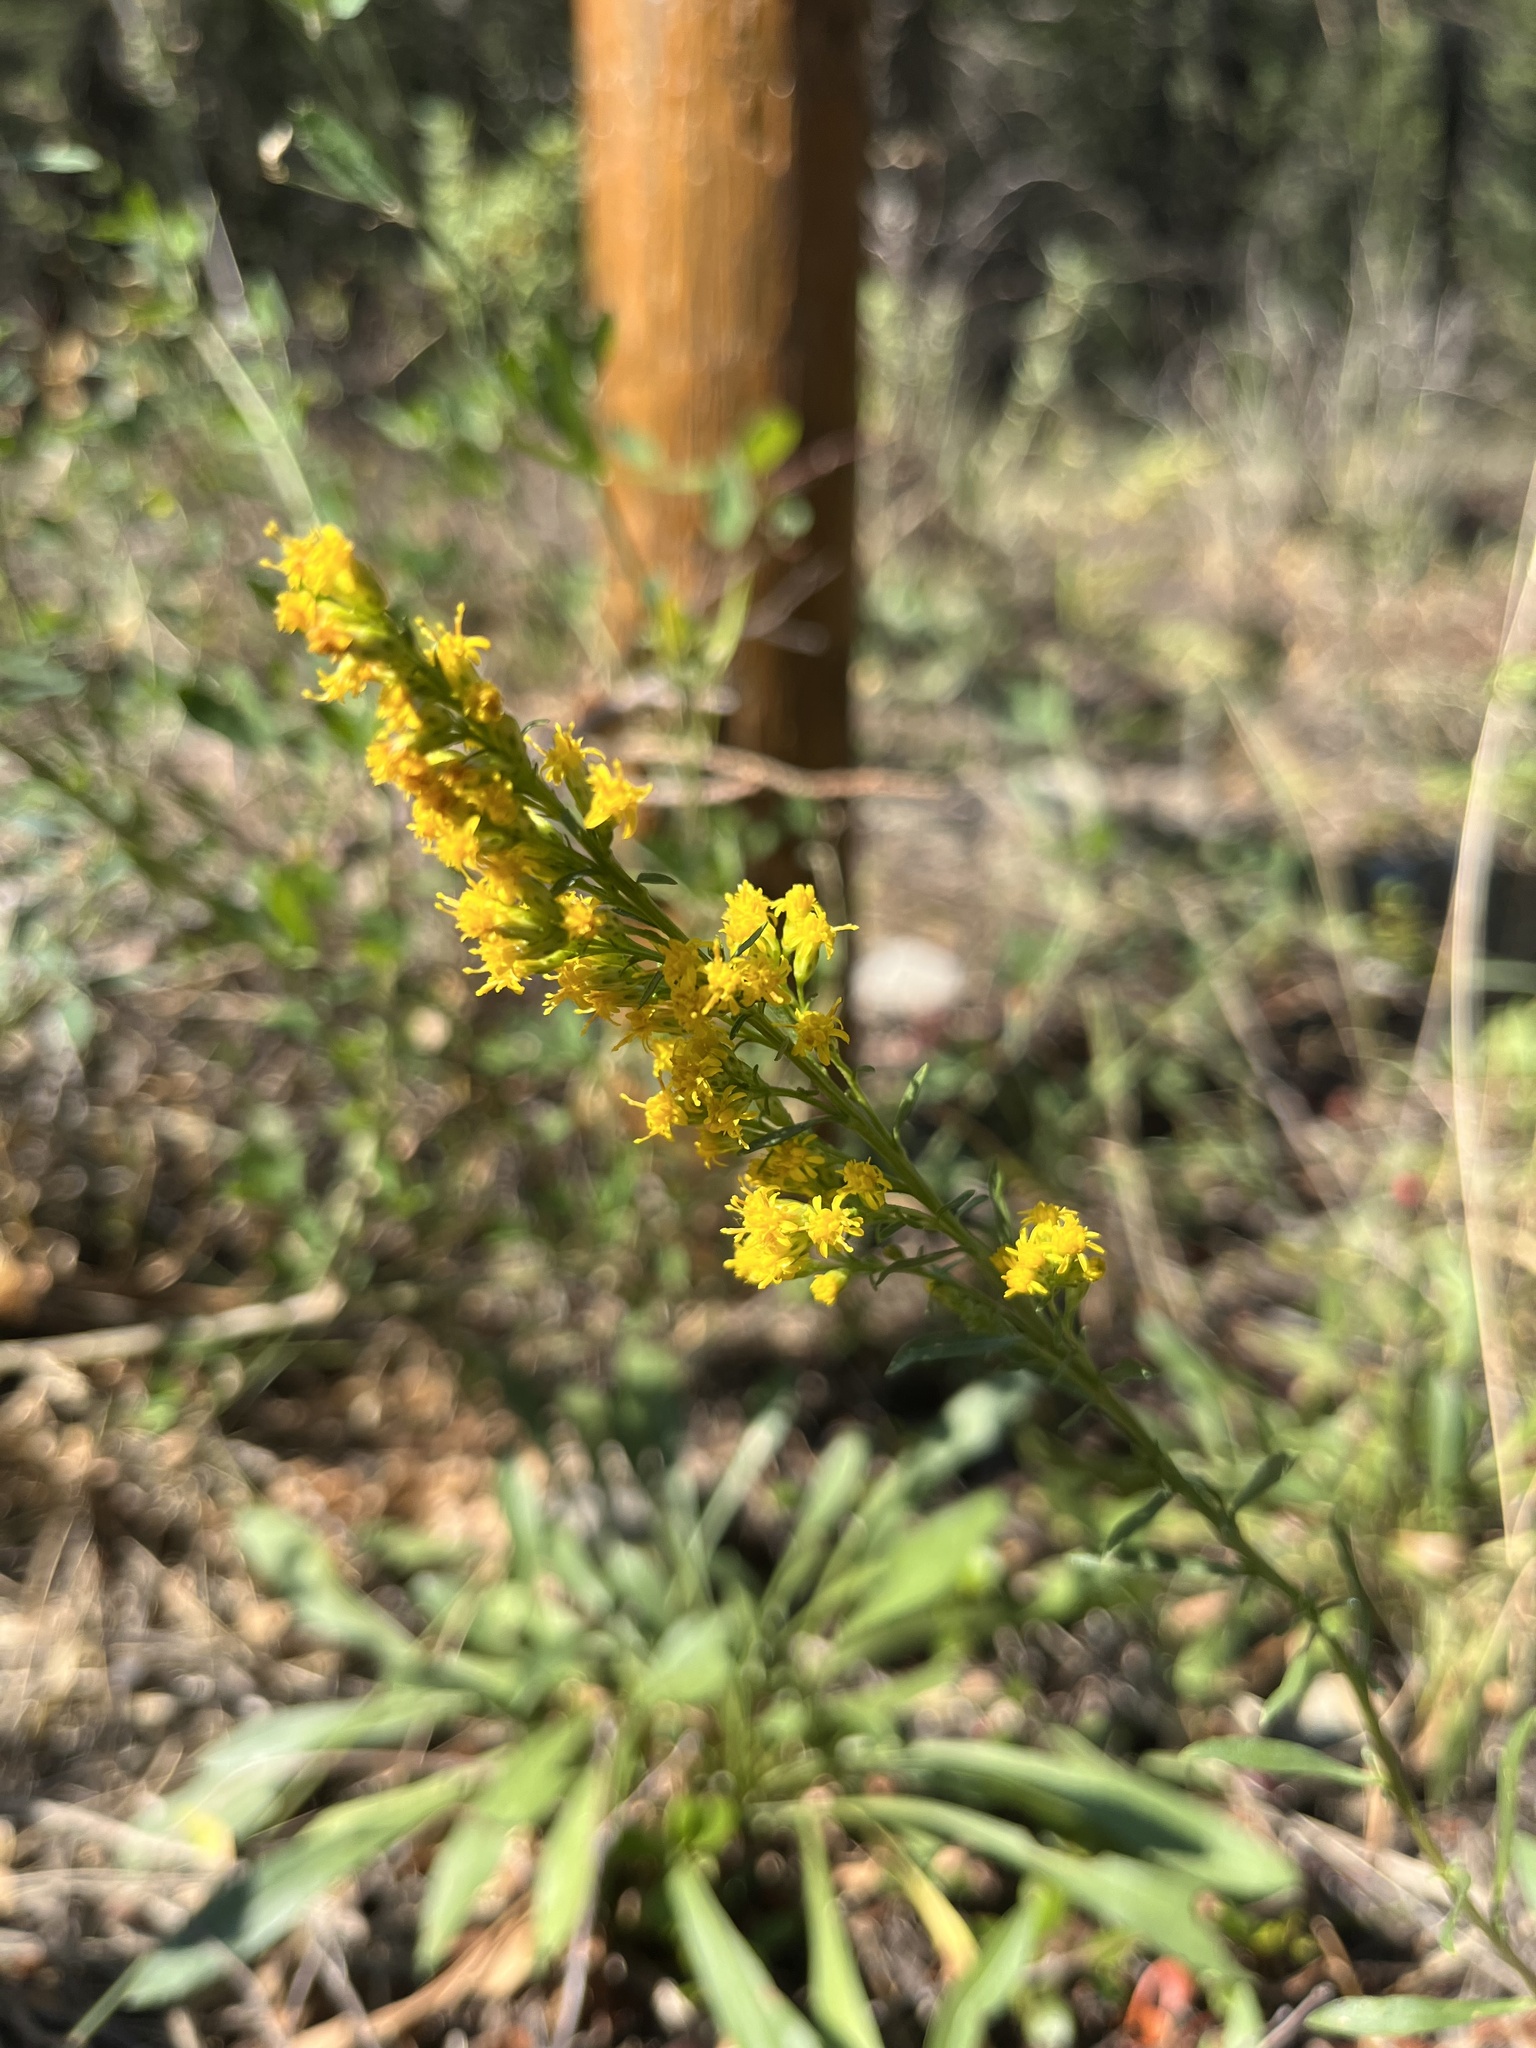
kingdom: Plantae
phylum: Tracheophyta
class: Magnoliopsida
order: Asterales
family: Asteraceae
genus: Solidago
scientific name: Solidago glutinosa
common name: Decumbent goldenrod
